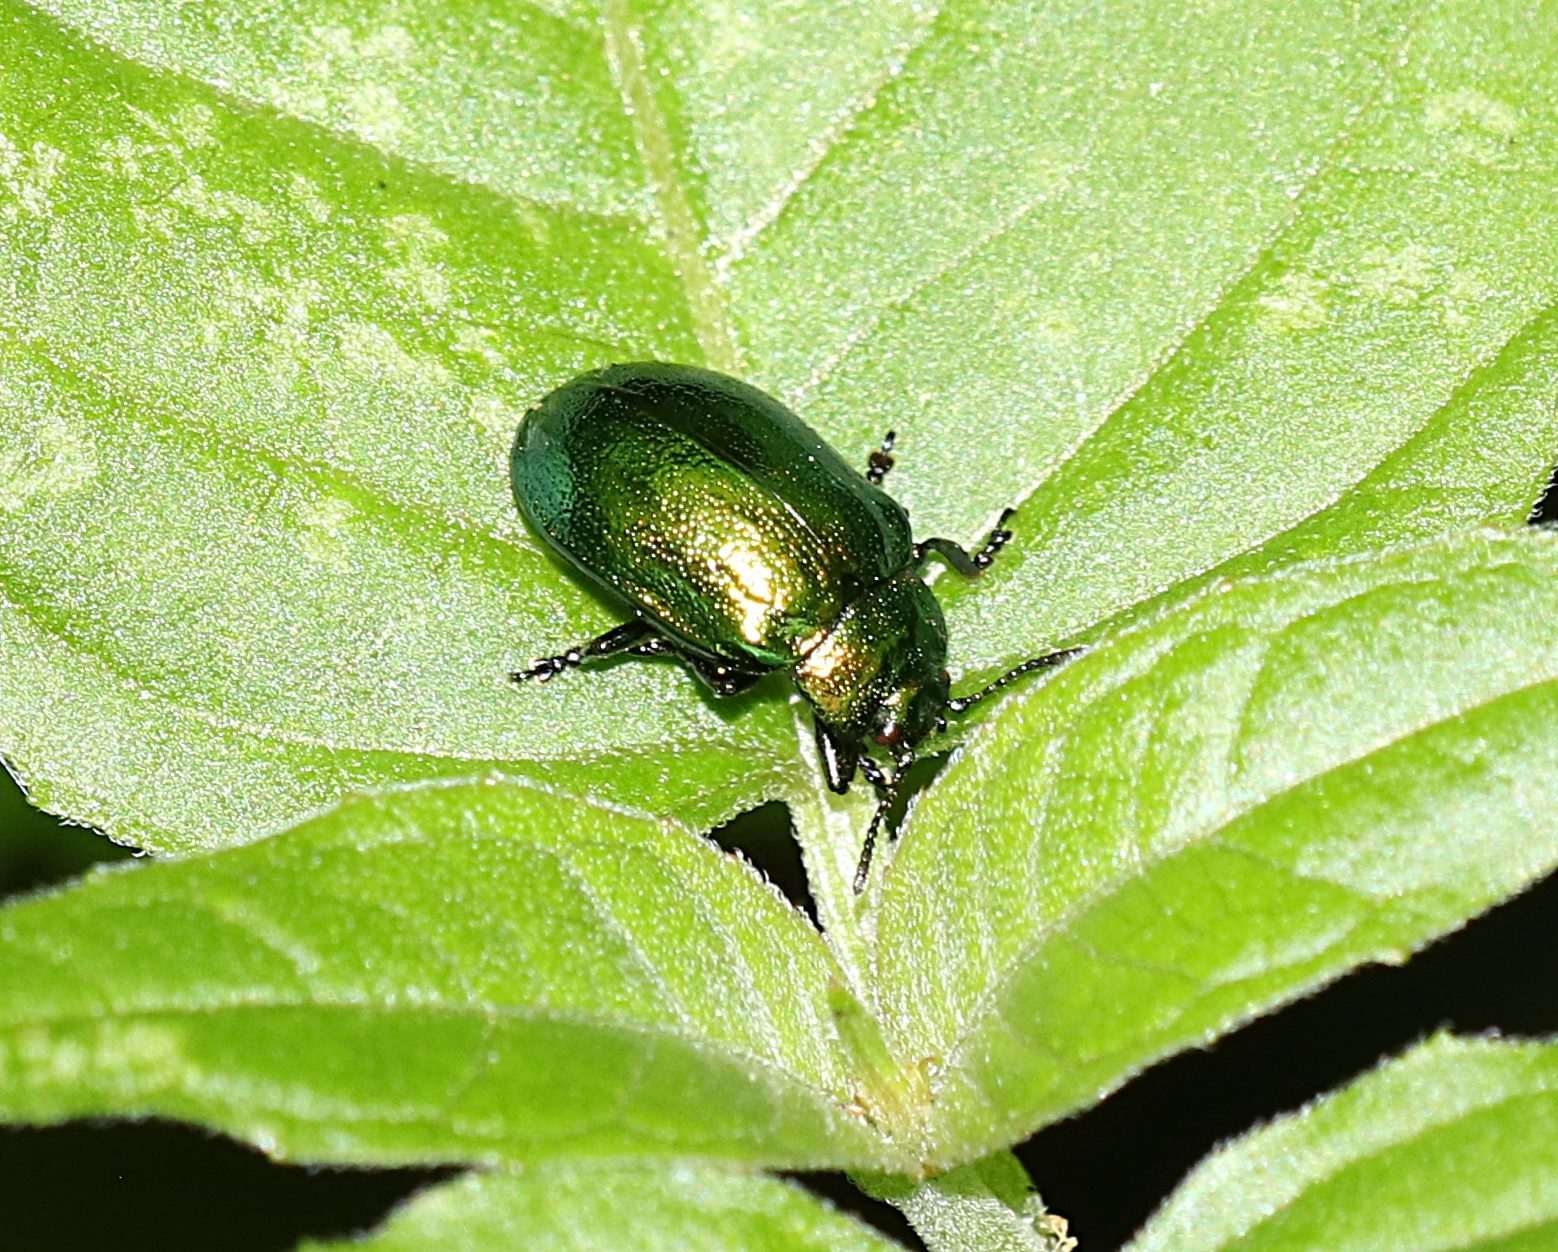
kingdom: Animalia
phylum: Arthropoda
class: Insecta
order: Coleoptera
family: Chrysomelidae
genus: Plagiosterna
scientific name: Plagiosterna aenea
